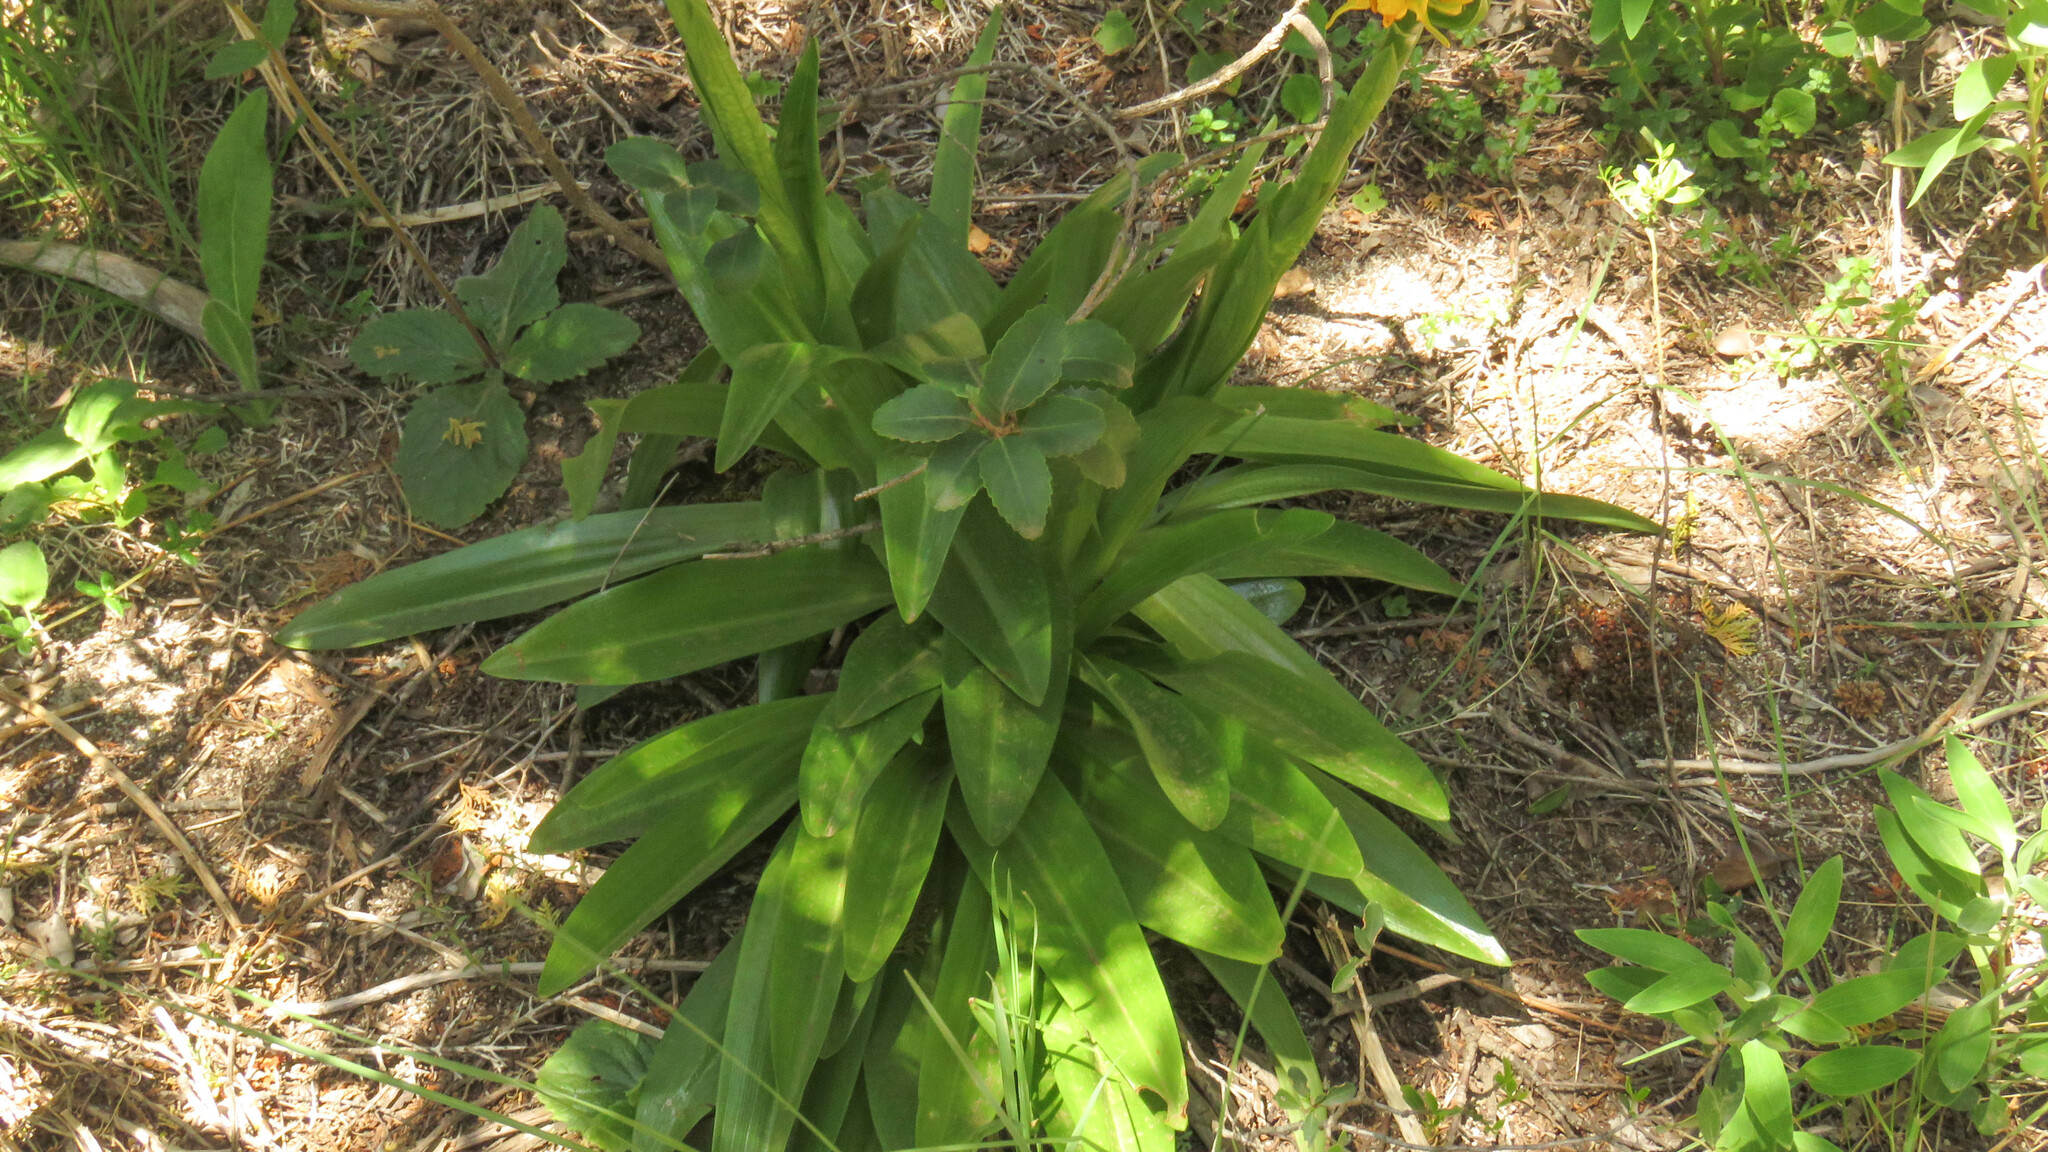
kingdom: Plantae
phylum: Tracheophyta
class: Liliopsida
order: Asparagales
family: Orchidaceae
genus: Gavilea
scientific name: Gavilea odoratissima
